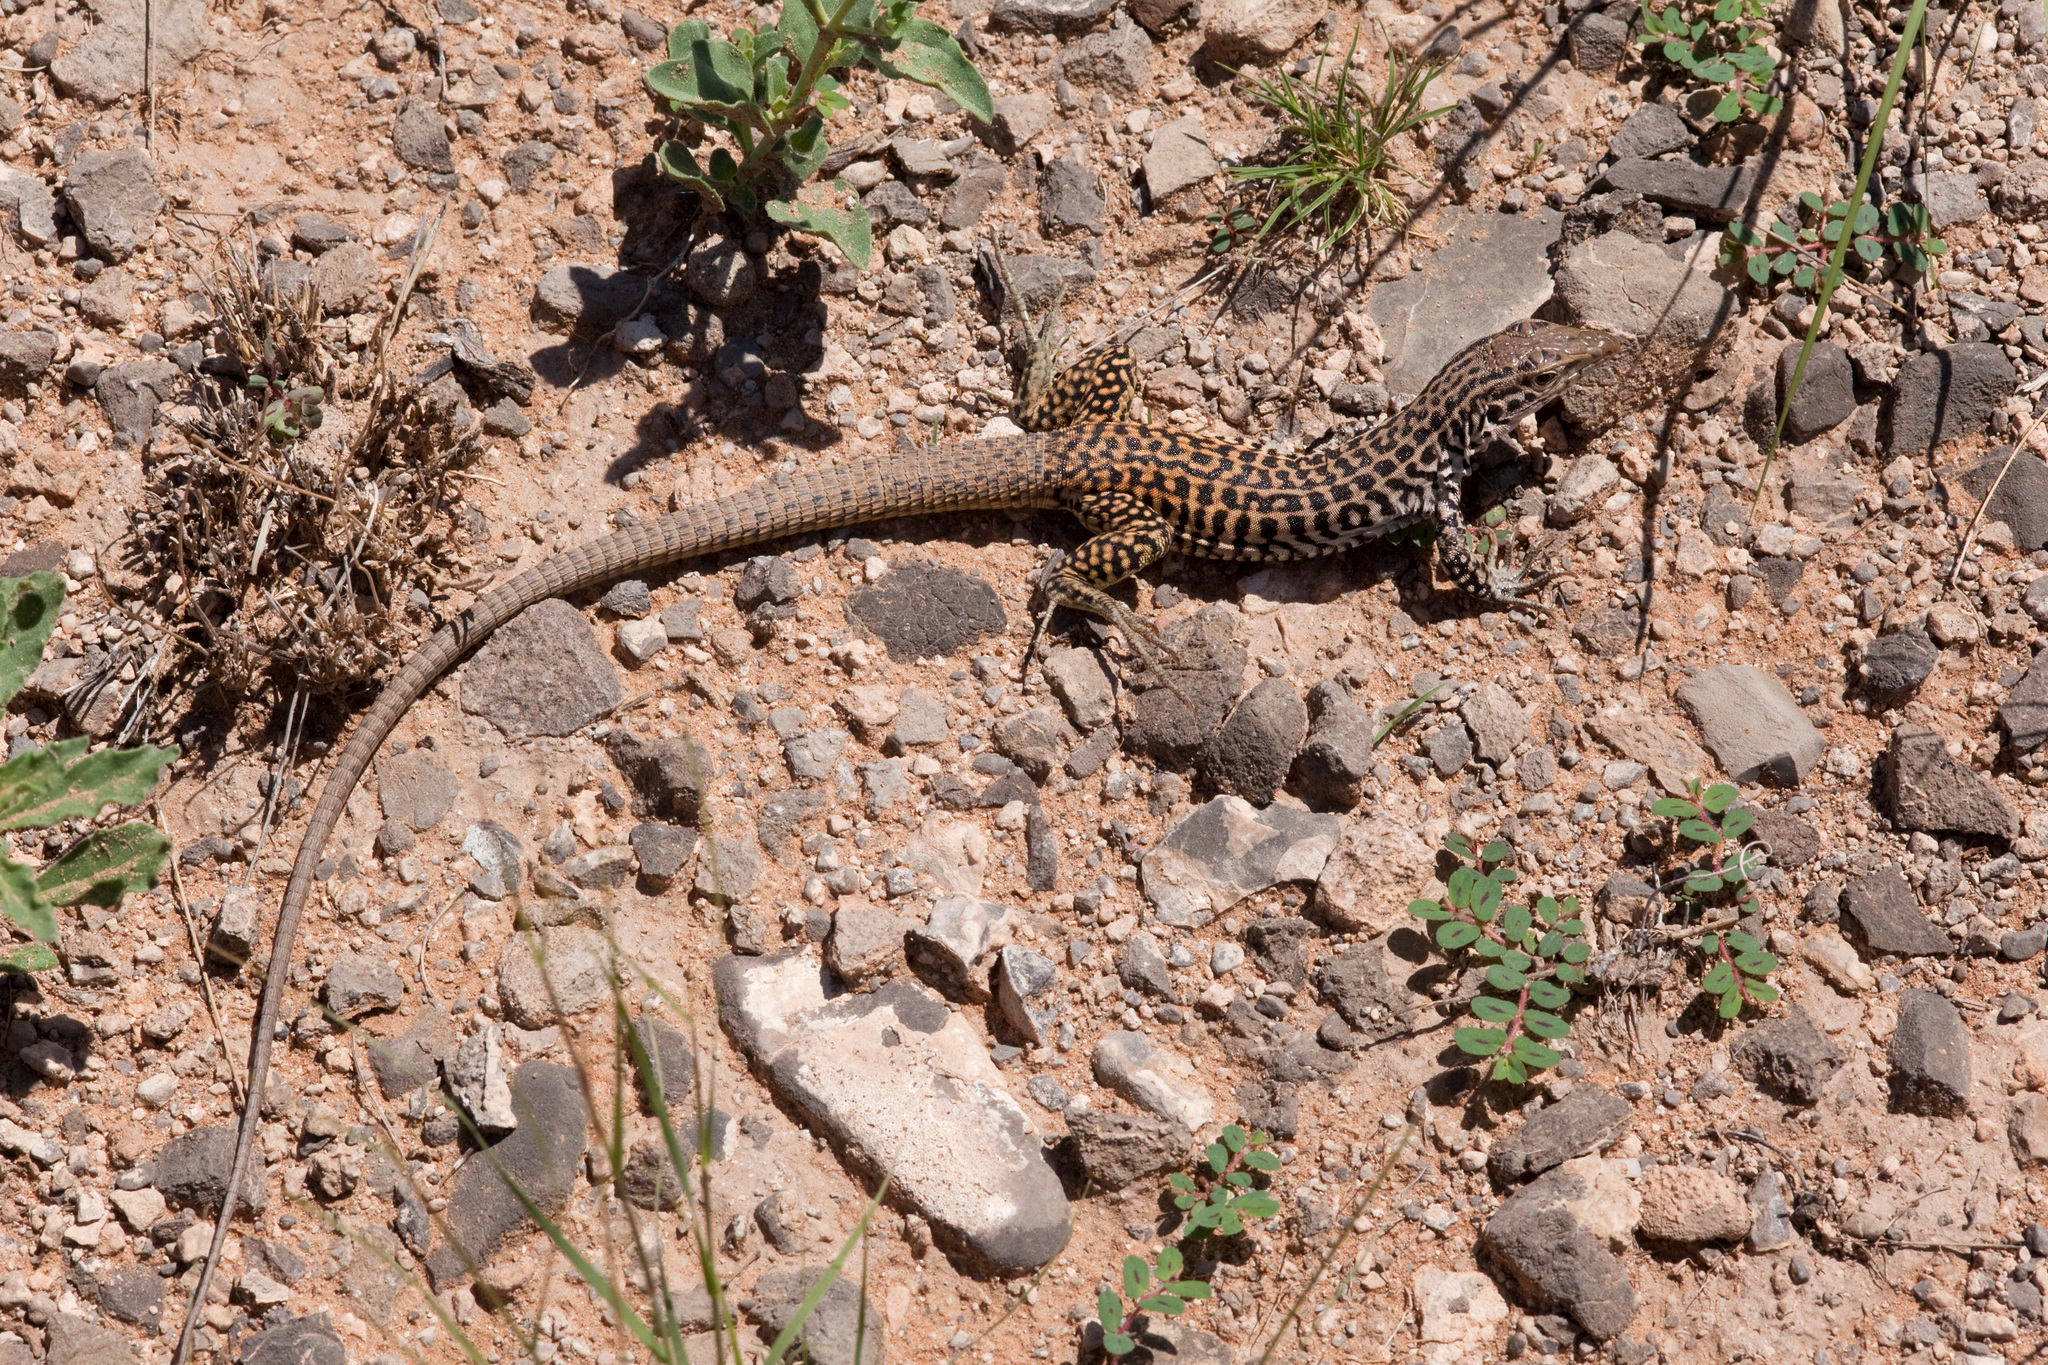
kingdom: Animalia
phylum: Chordata
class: Squamata
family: Teiidae
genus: Aspidoscelis
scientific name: Aspidoscelis tesselatus
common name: Common checkered whiptail [tesselata]
